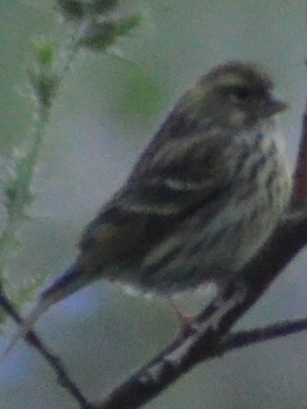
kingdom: Animalia
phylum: Chordata
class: Aves
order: Passeriformes
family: Fringillidae
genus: Serinus
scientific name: Serinus serinus
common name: European serin
